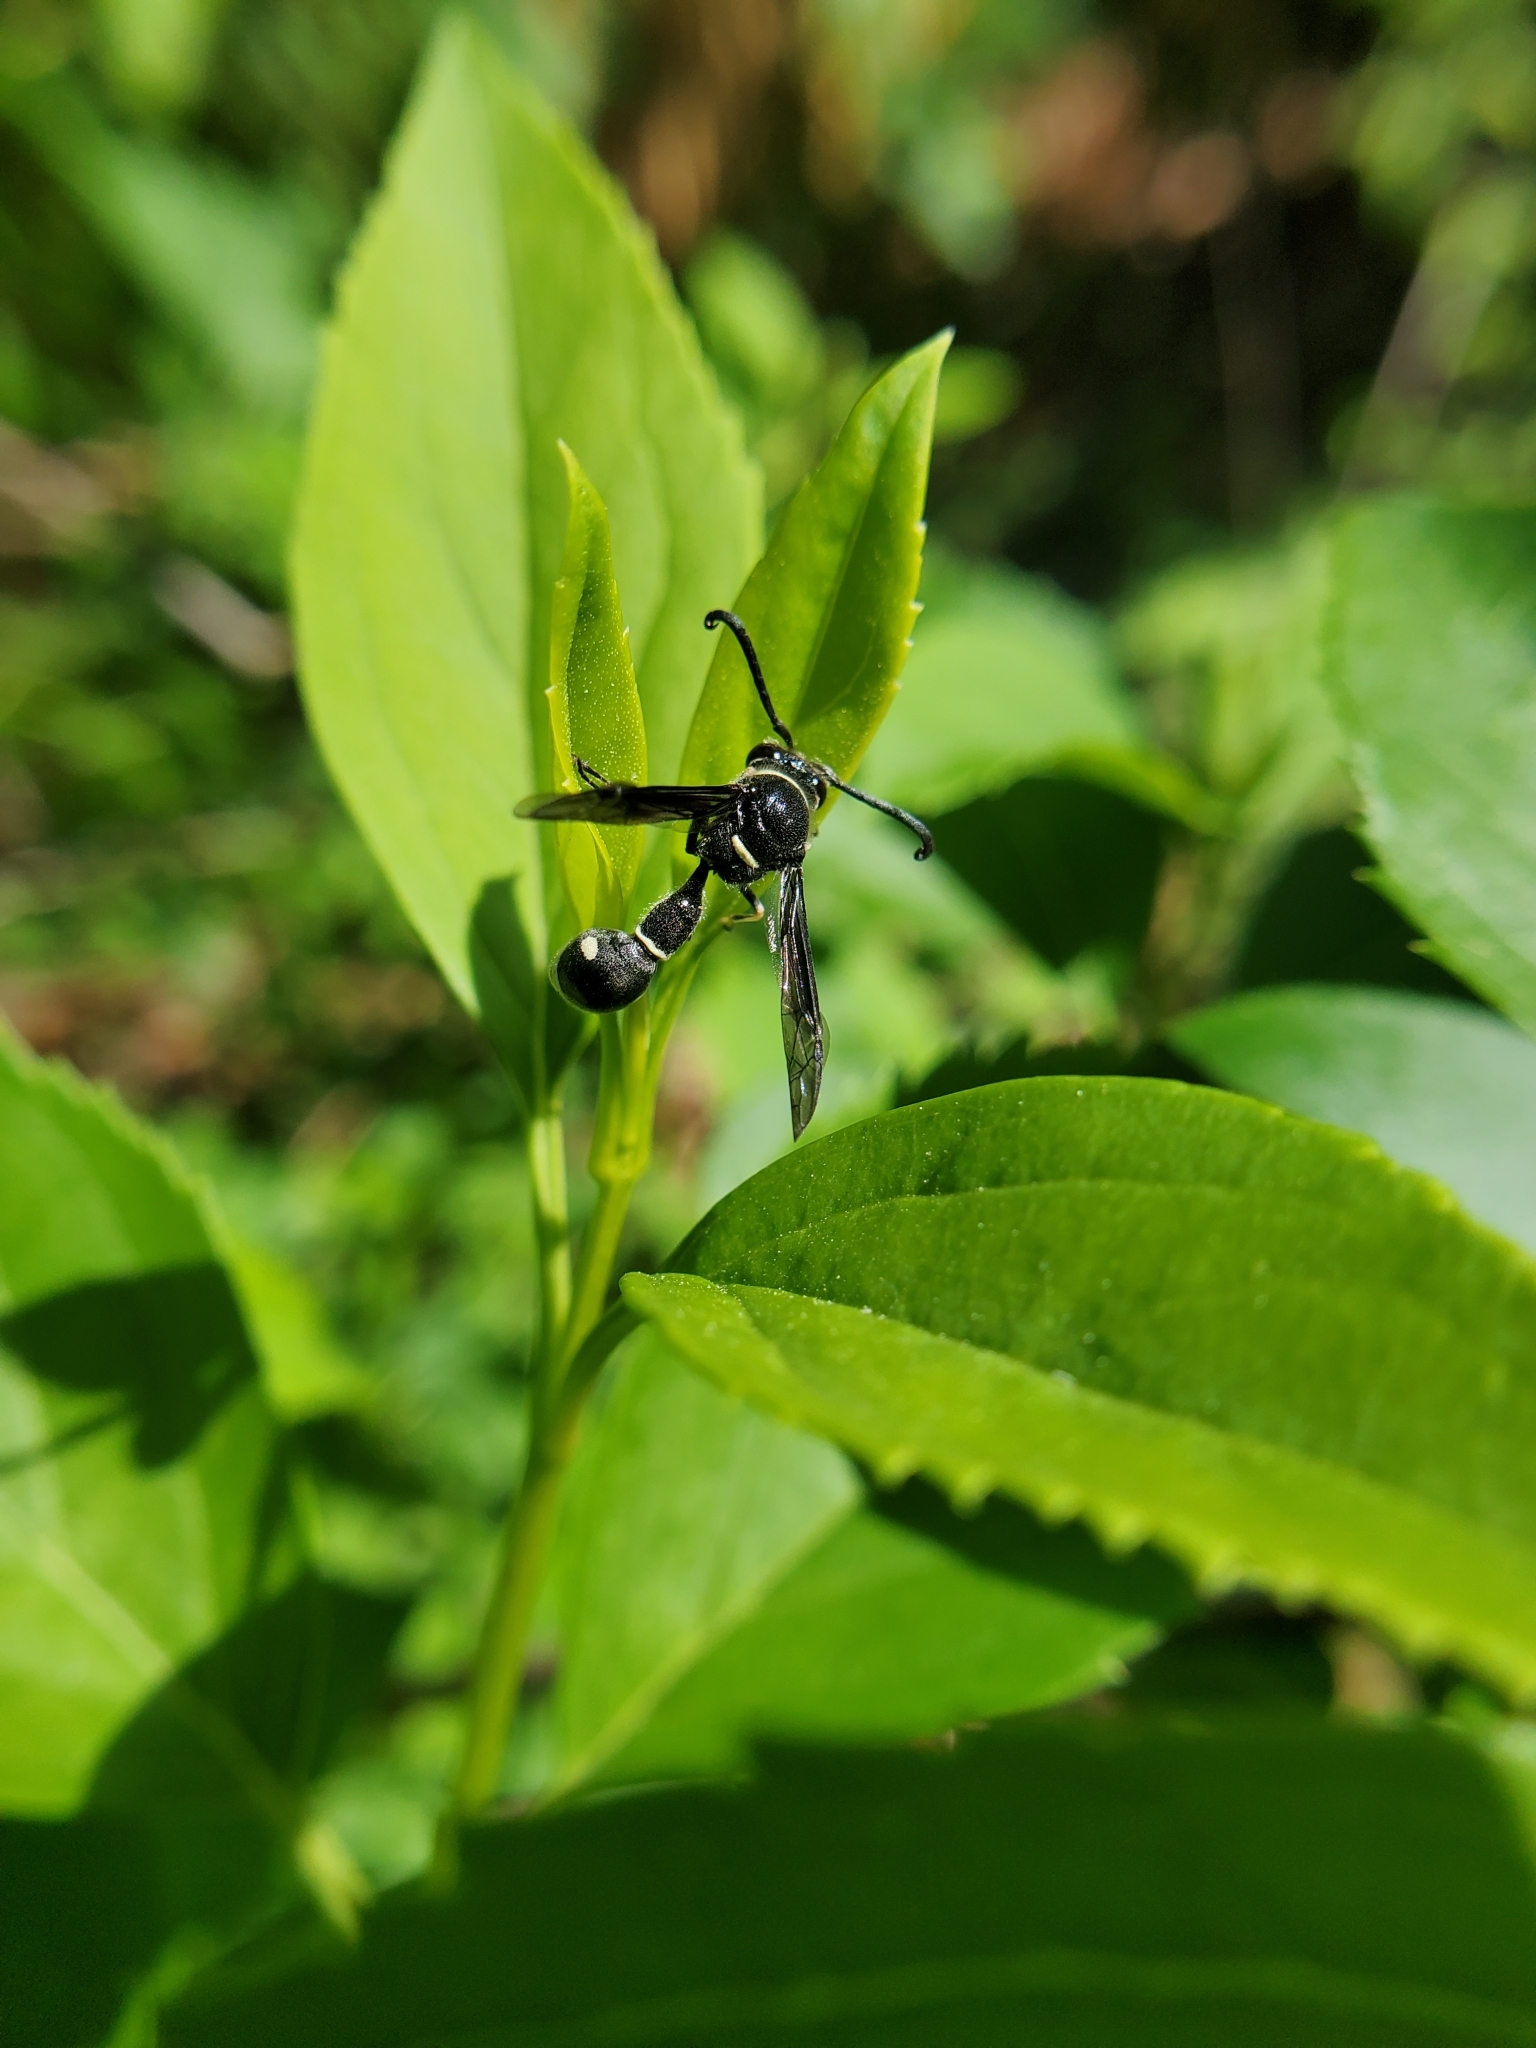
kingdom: Animalia
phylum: Arthropoda
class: Insecta
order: Hymenoptera
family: Vespidae
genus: Eumenes
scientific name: Eumenes fraternus
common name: Fraternal potter wasp
